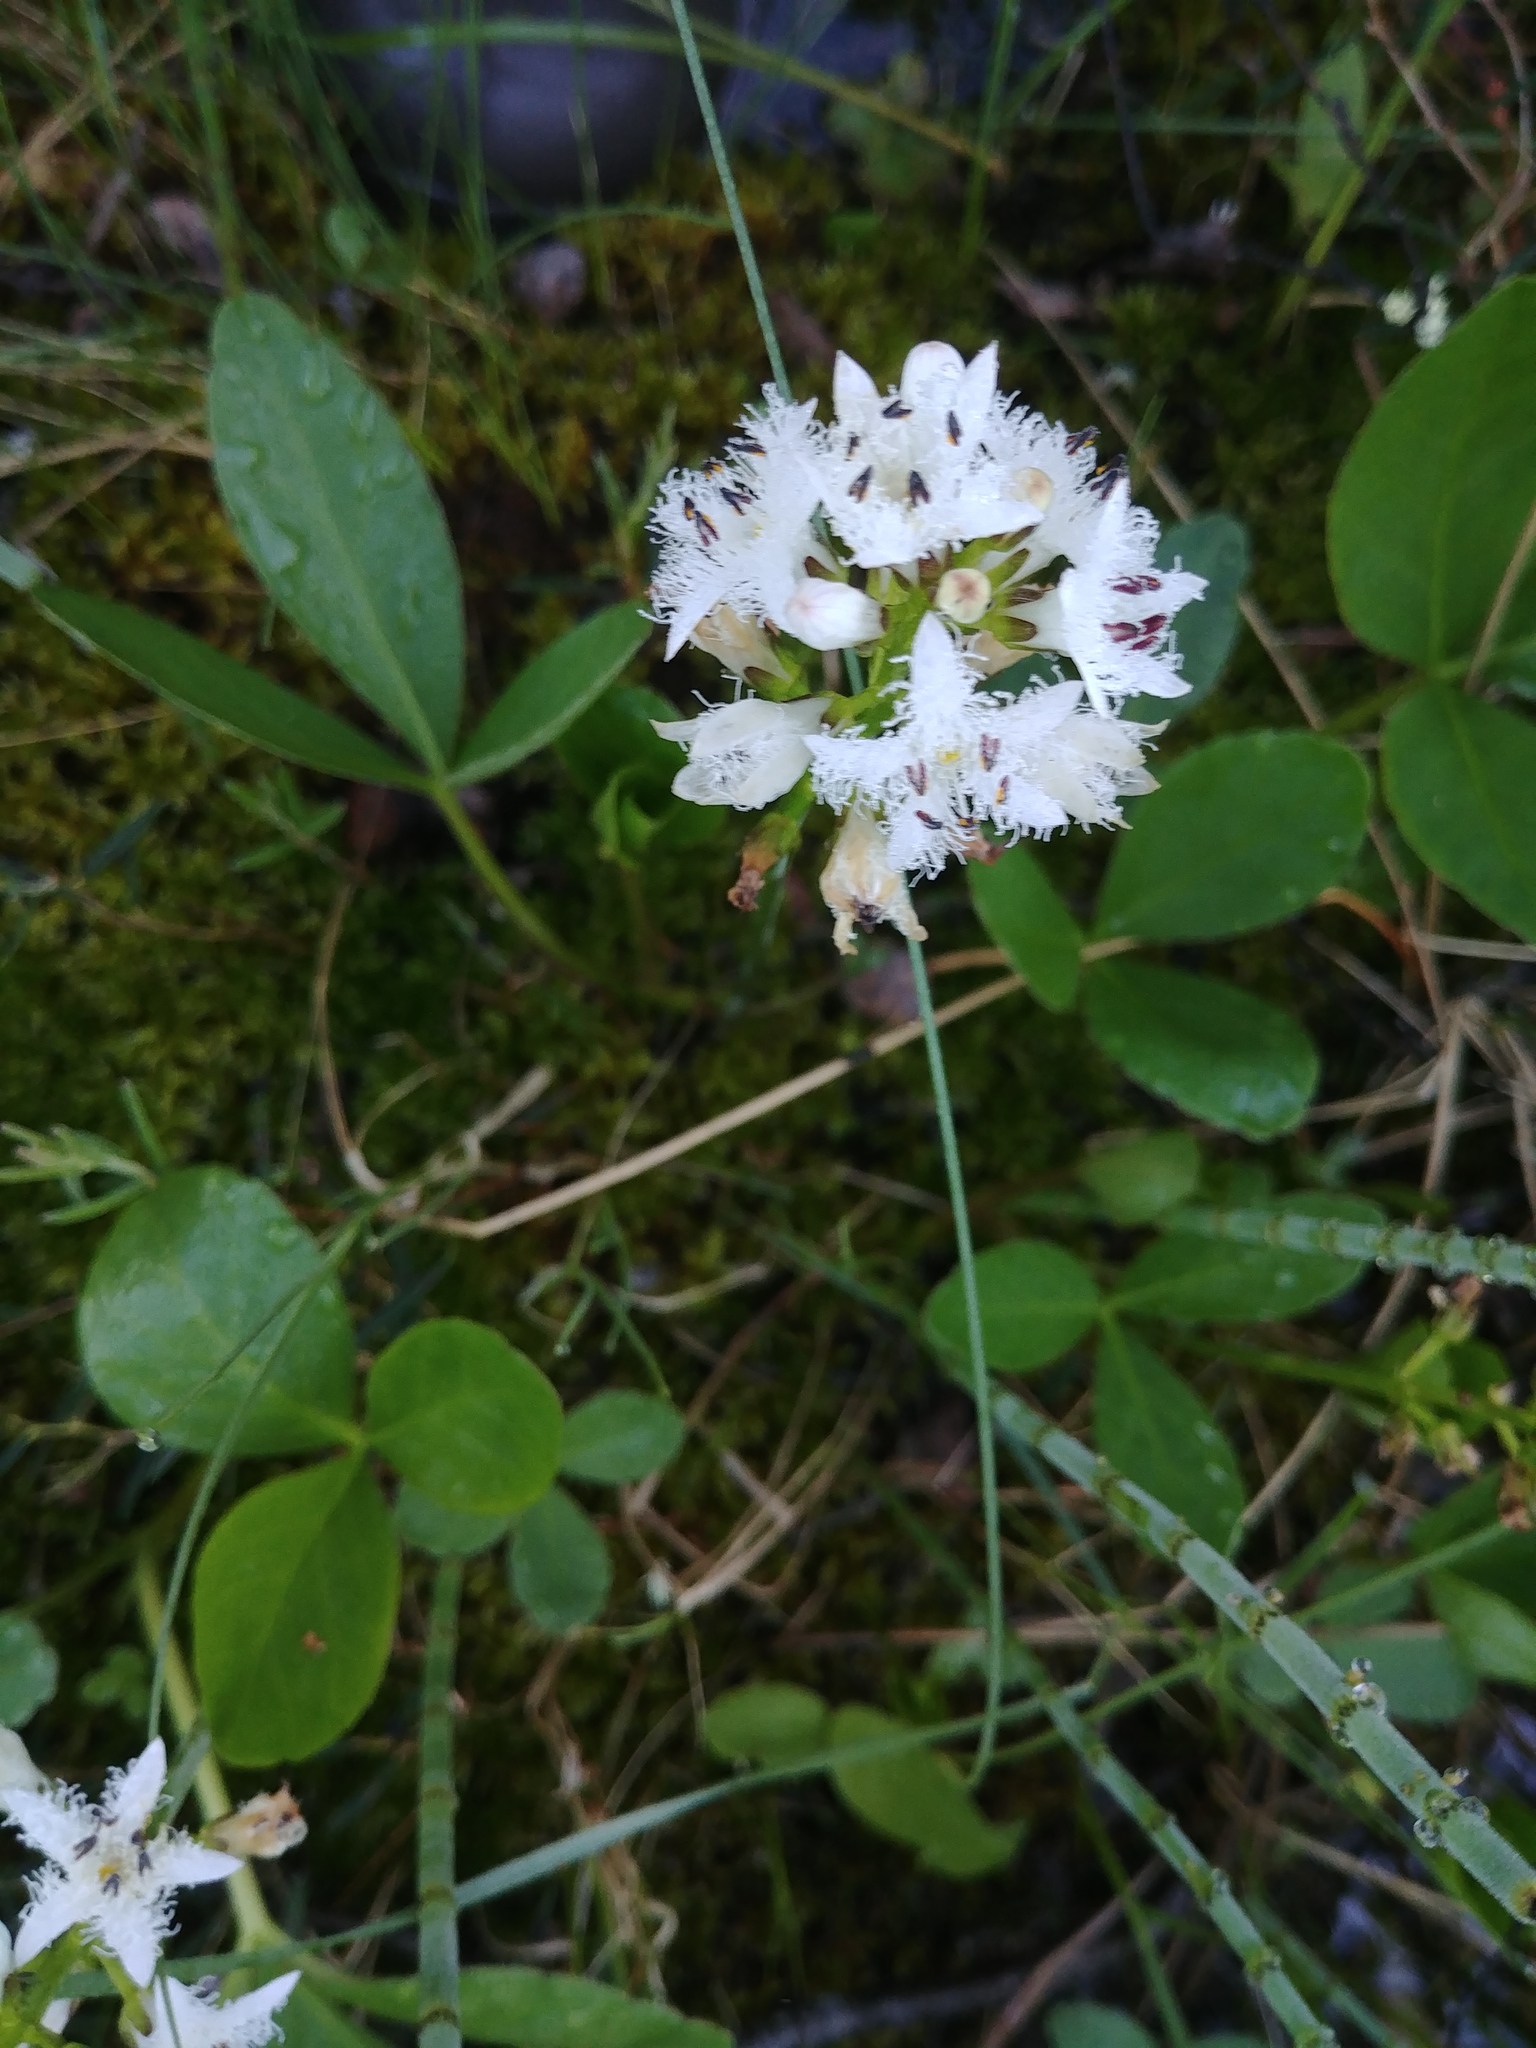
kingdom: Plantae
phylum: Tracheophyta
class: Magnoliopsida
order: Asterales
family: Menyanthaceae
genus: Menyanthes
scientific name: Menyanthes trifoliata
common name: Bogbean
